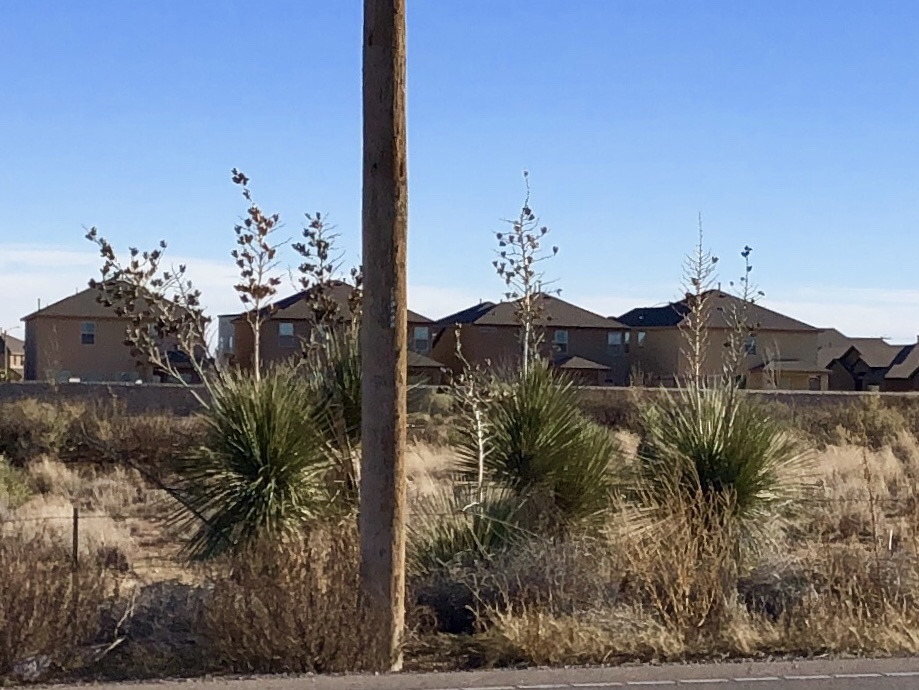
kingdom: Plantae
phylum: Tracheophyta
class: Liliopsida
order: Asparagales
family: Asparagaceae
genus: Yucca
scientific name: Yucca elata
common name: Palmella
